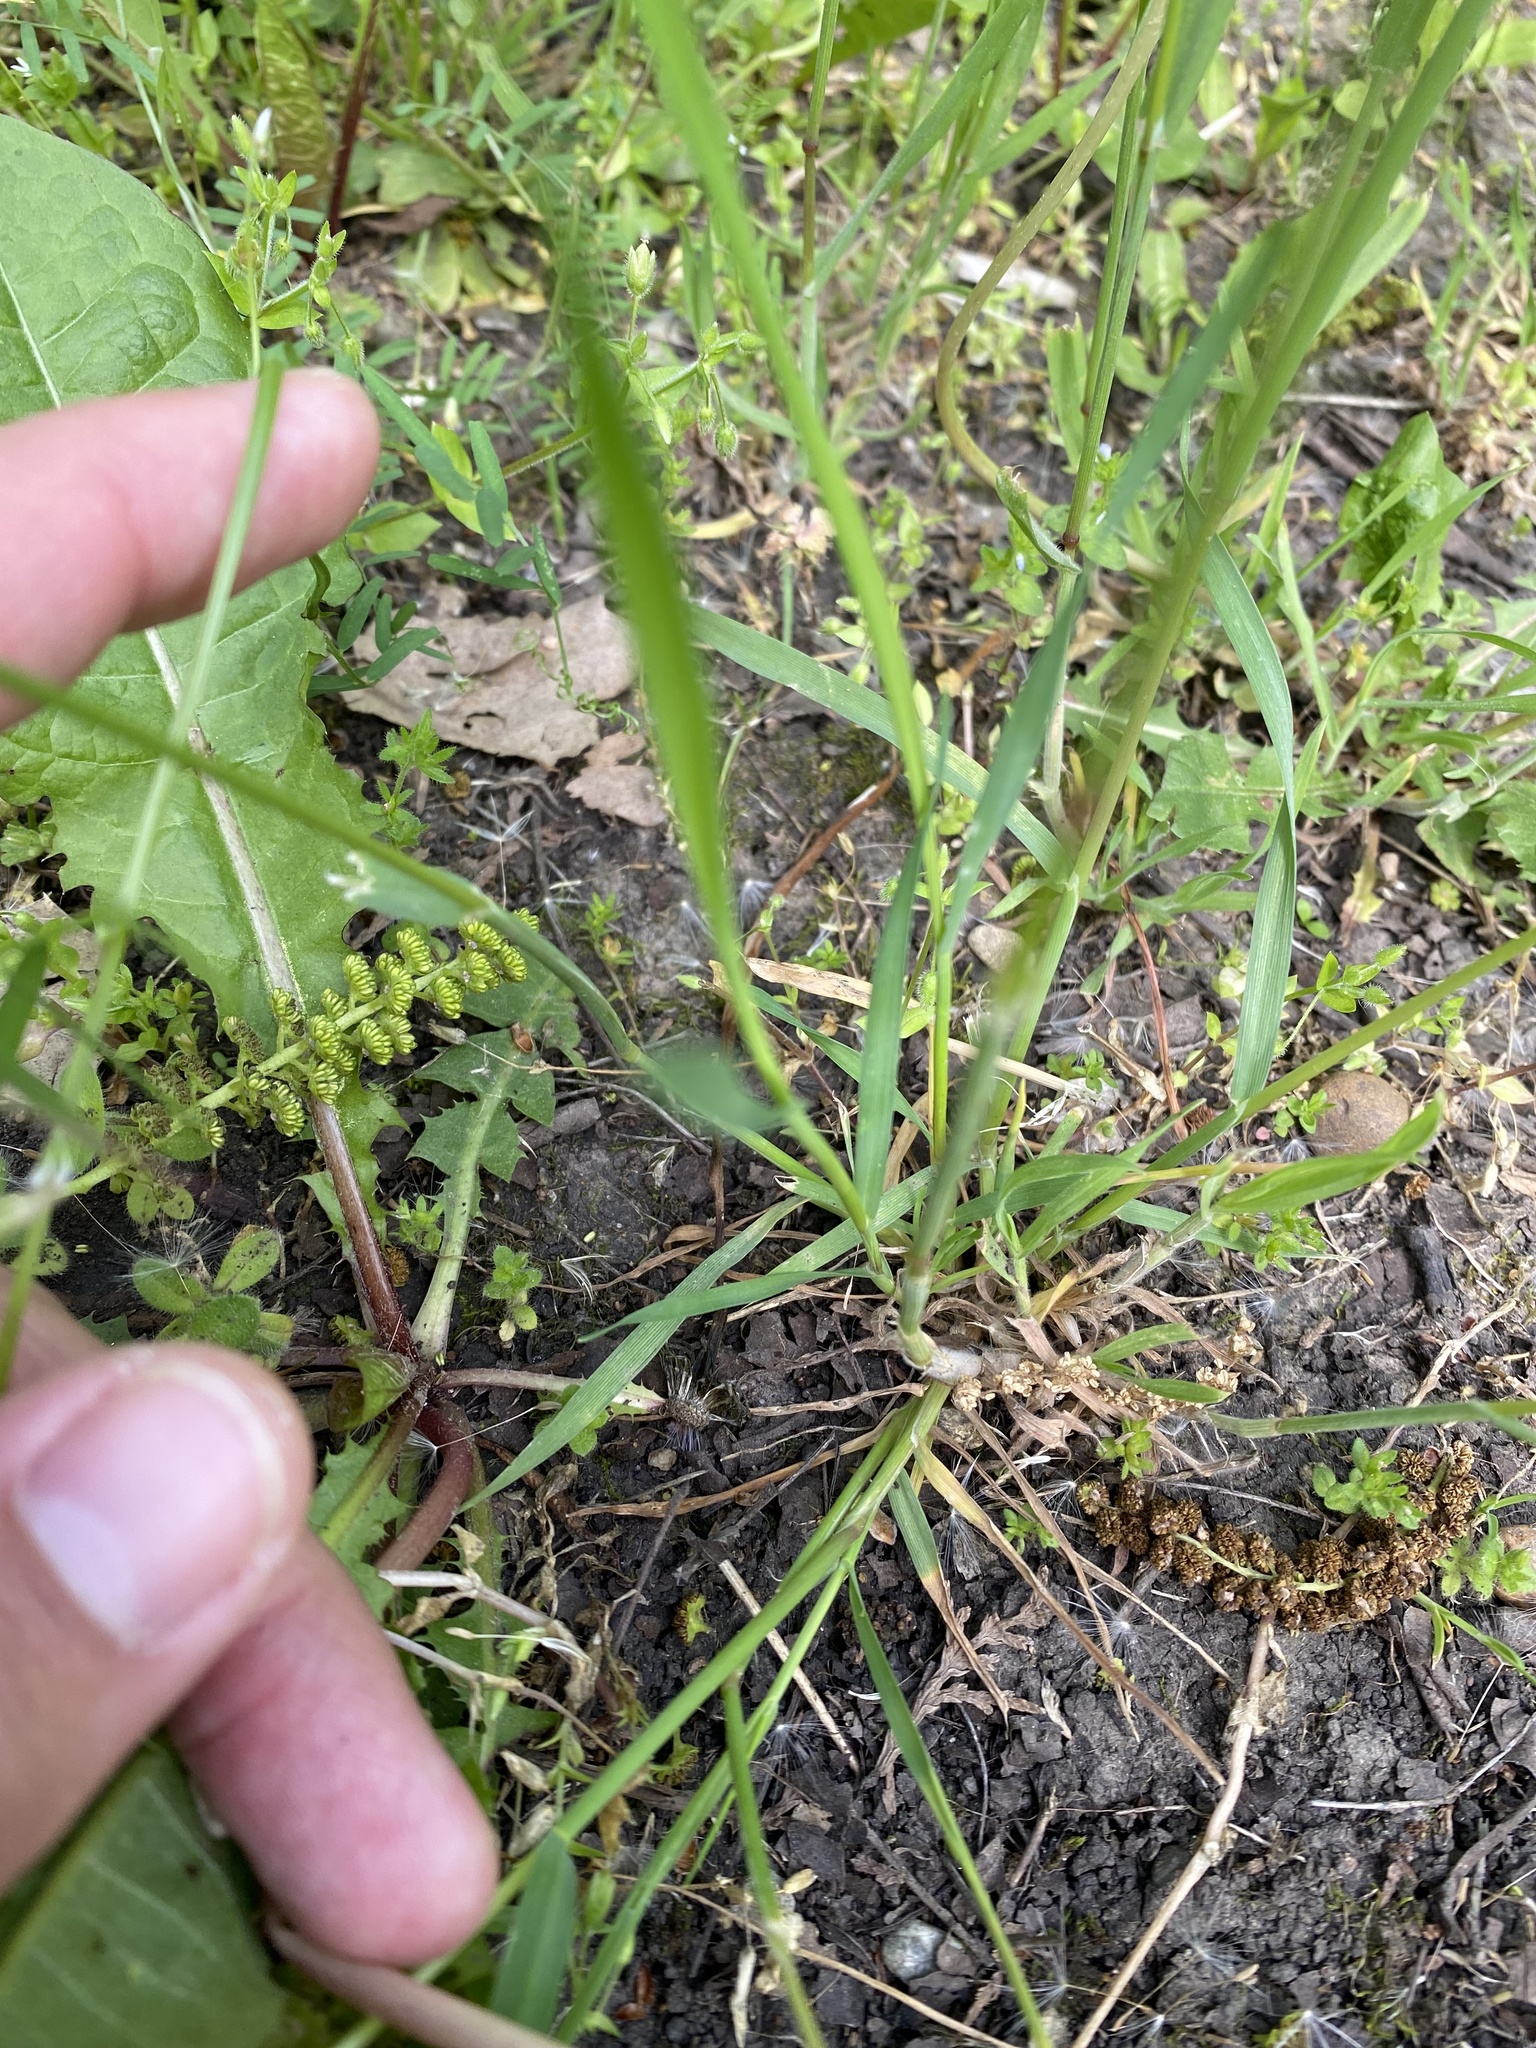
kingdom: Plantae
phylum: Tracheophyta
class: Liliopsida
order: Poales
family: Poaceae
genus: Alopecurus
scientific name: Alopecurus myosuroides
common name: Black-grass
